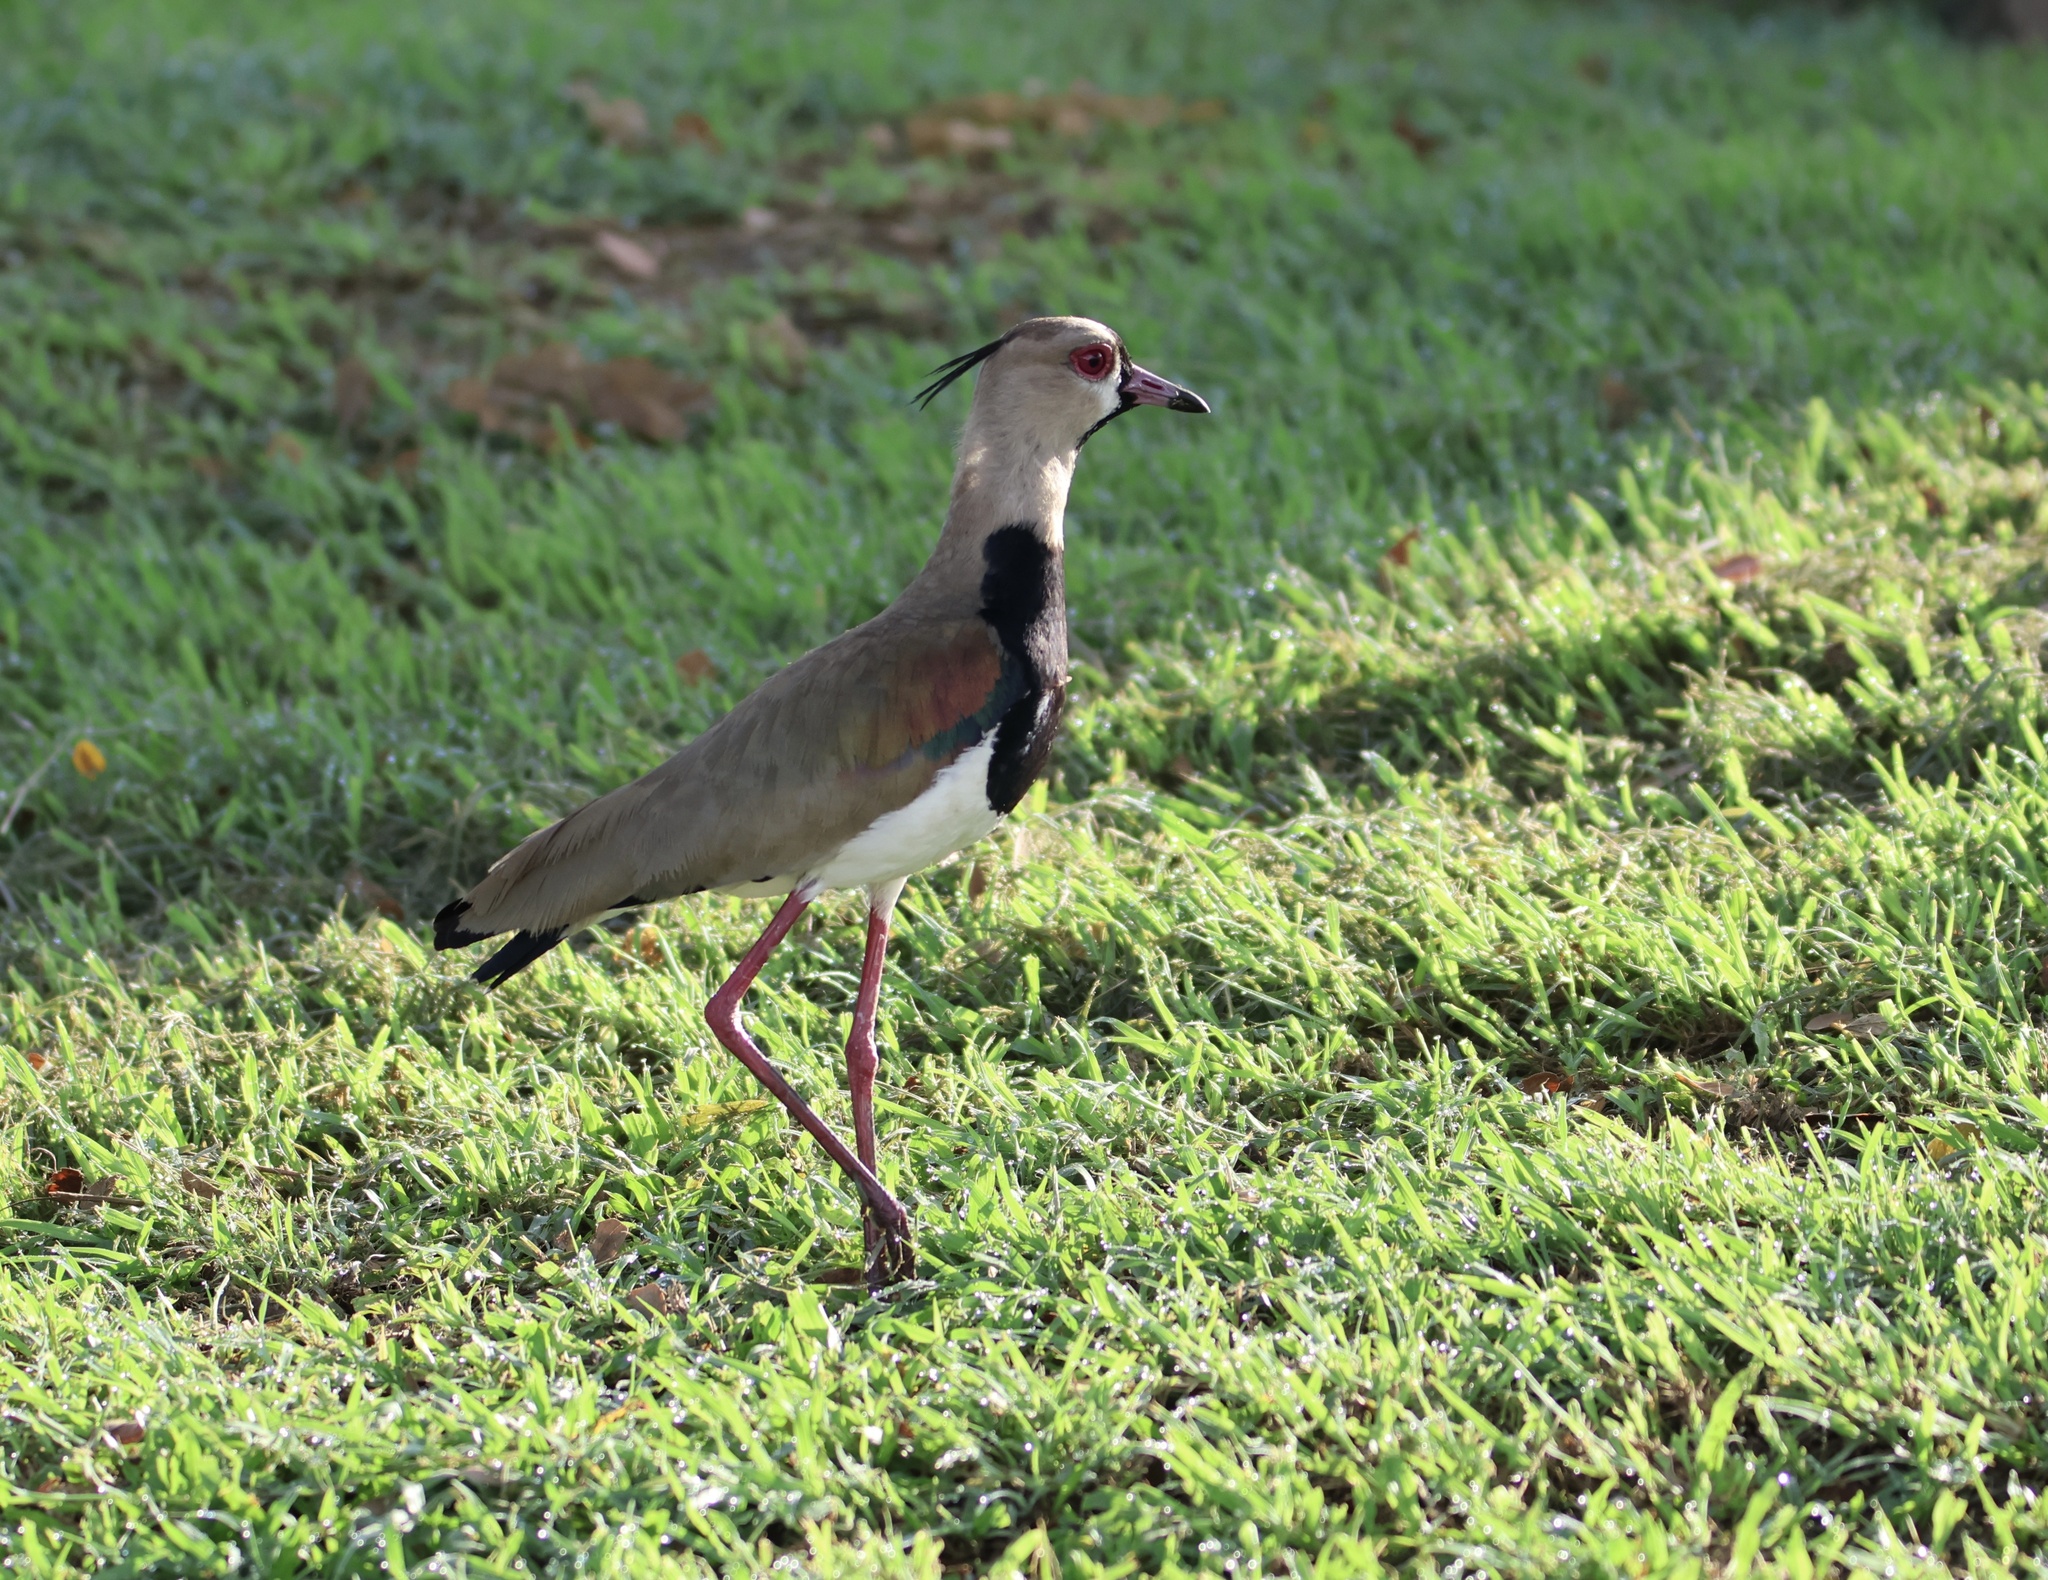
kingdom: Animalia
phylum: Chordata
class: Aves
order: Charadriiformes
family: Charadriidae
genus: Vanellus
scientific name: Vanellus chilensis
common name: Southern lapwing
